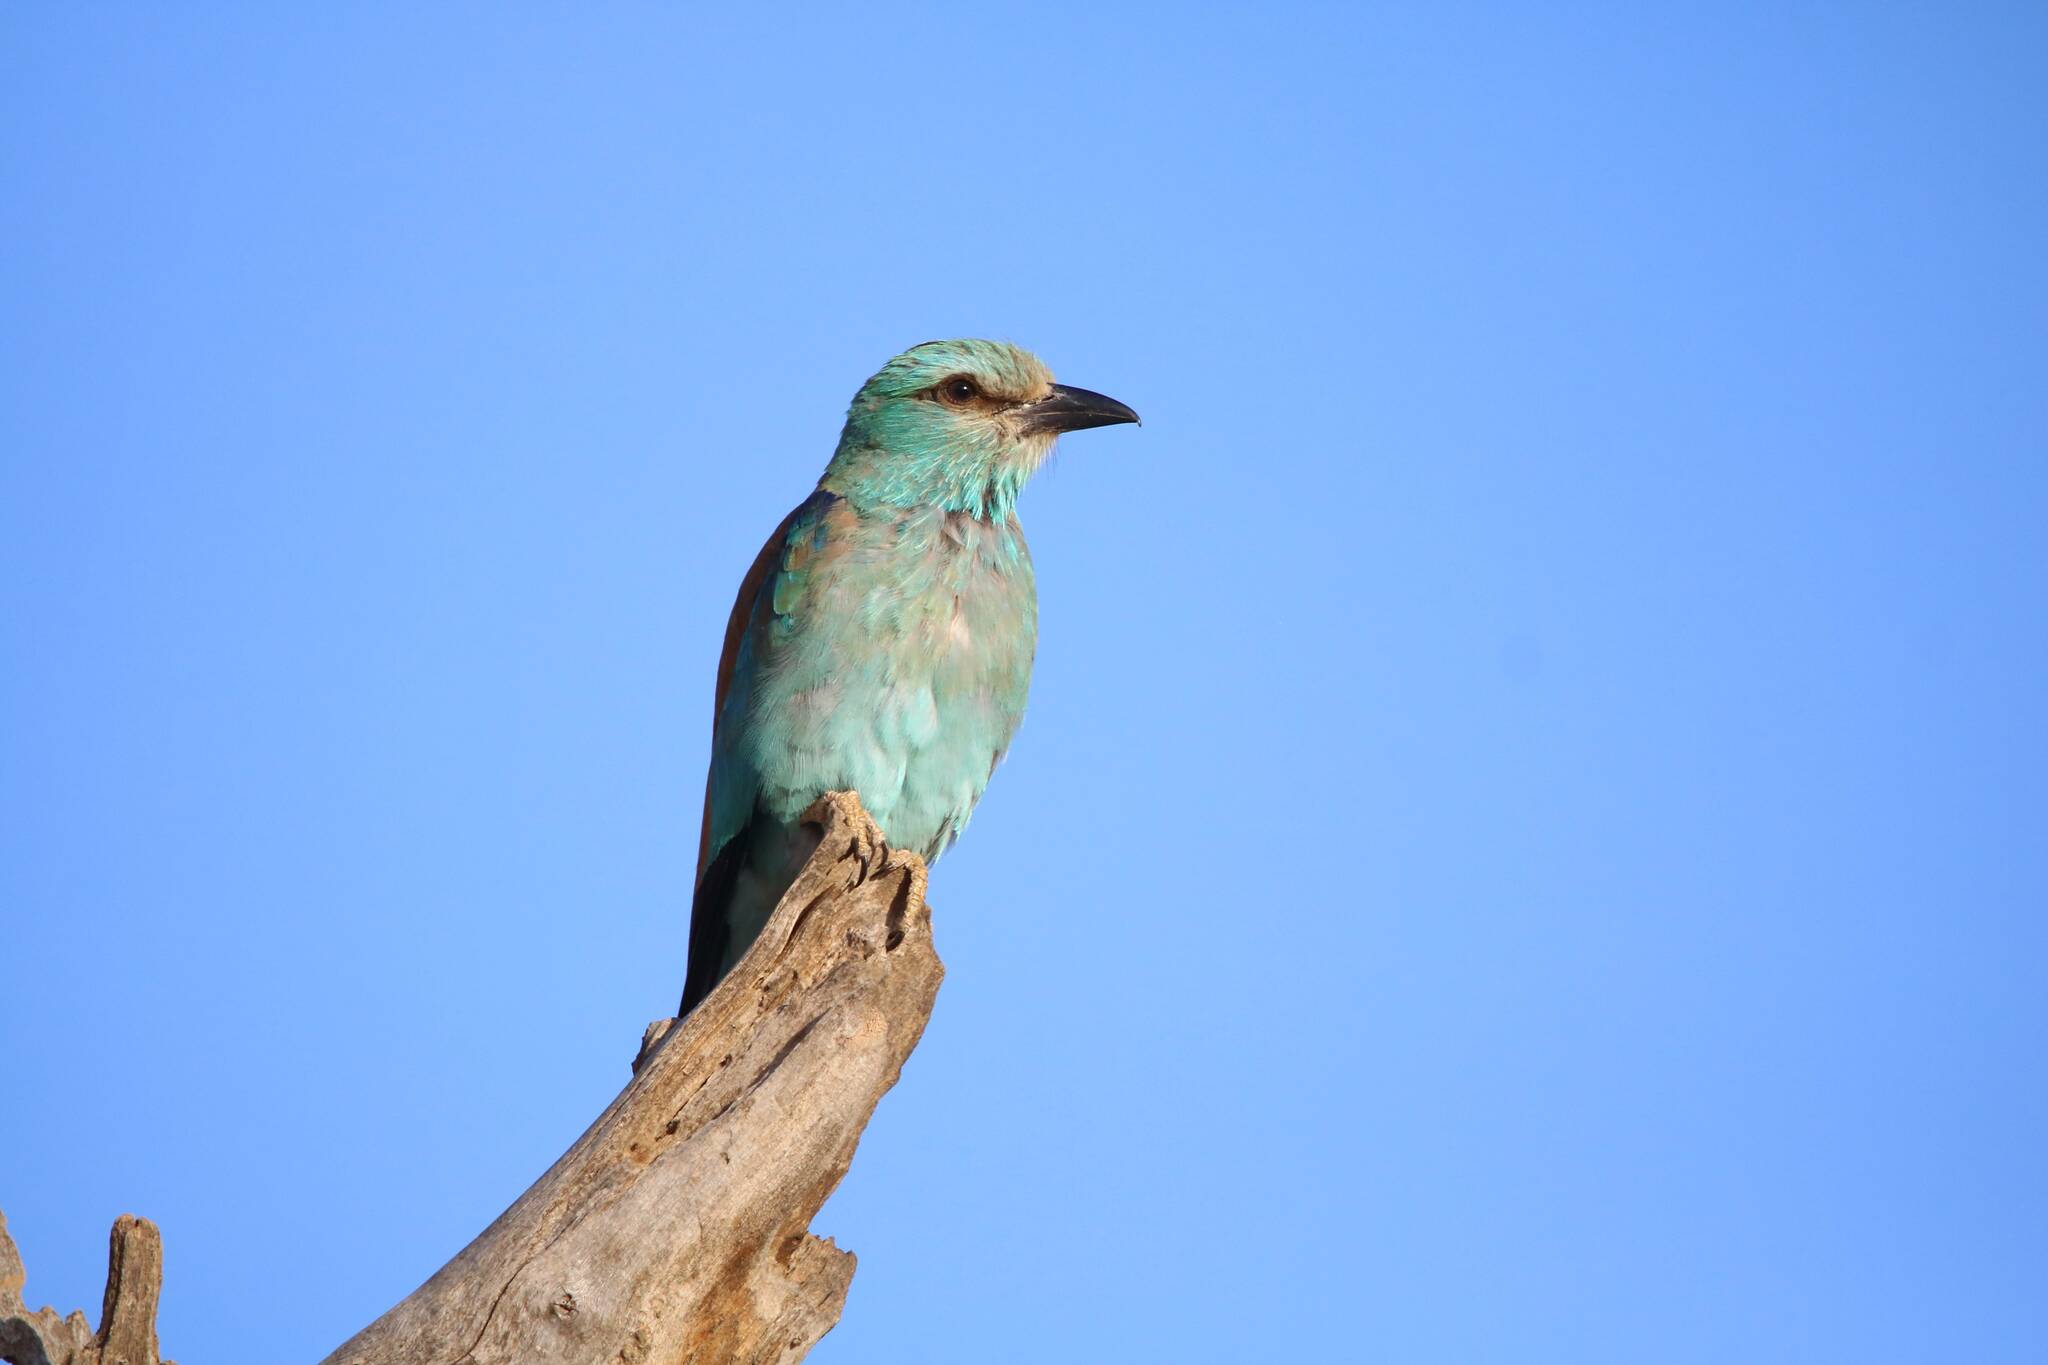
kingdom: Animalia
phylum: Chordata
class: Aves
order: Coraciiformes
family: Coraciidae
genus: Coracias
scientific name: Coracias garrulus
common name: European roller
